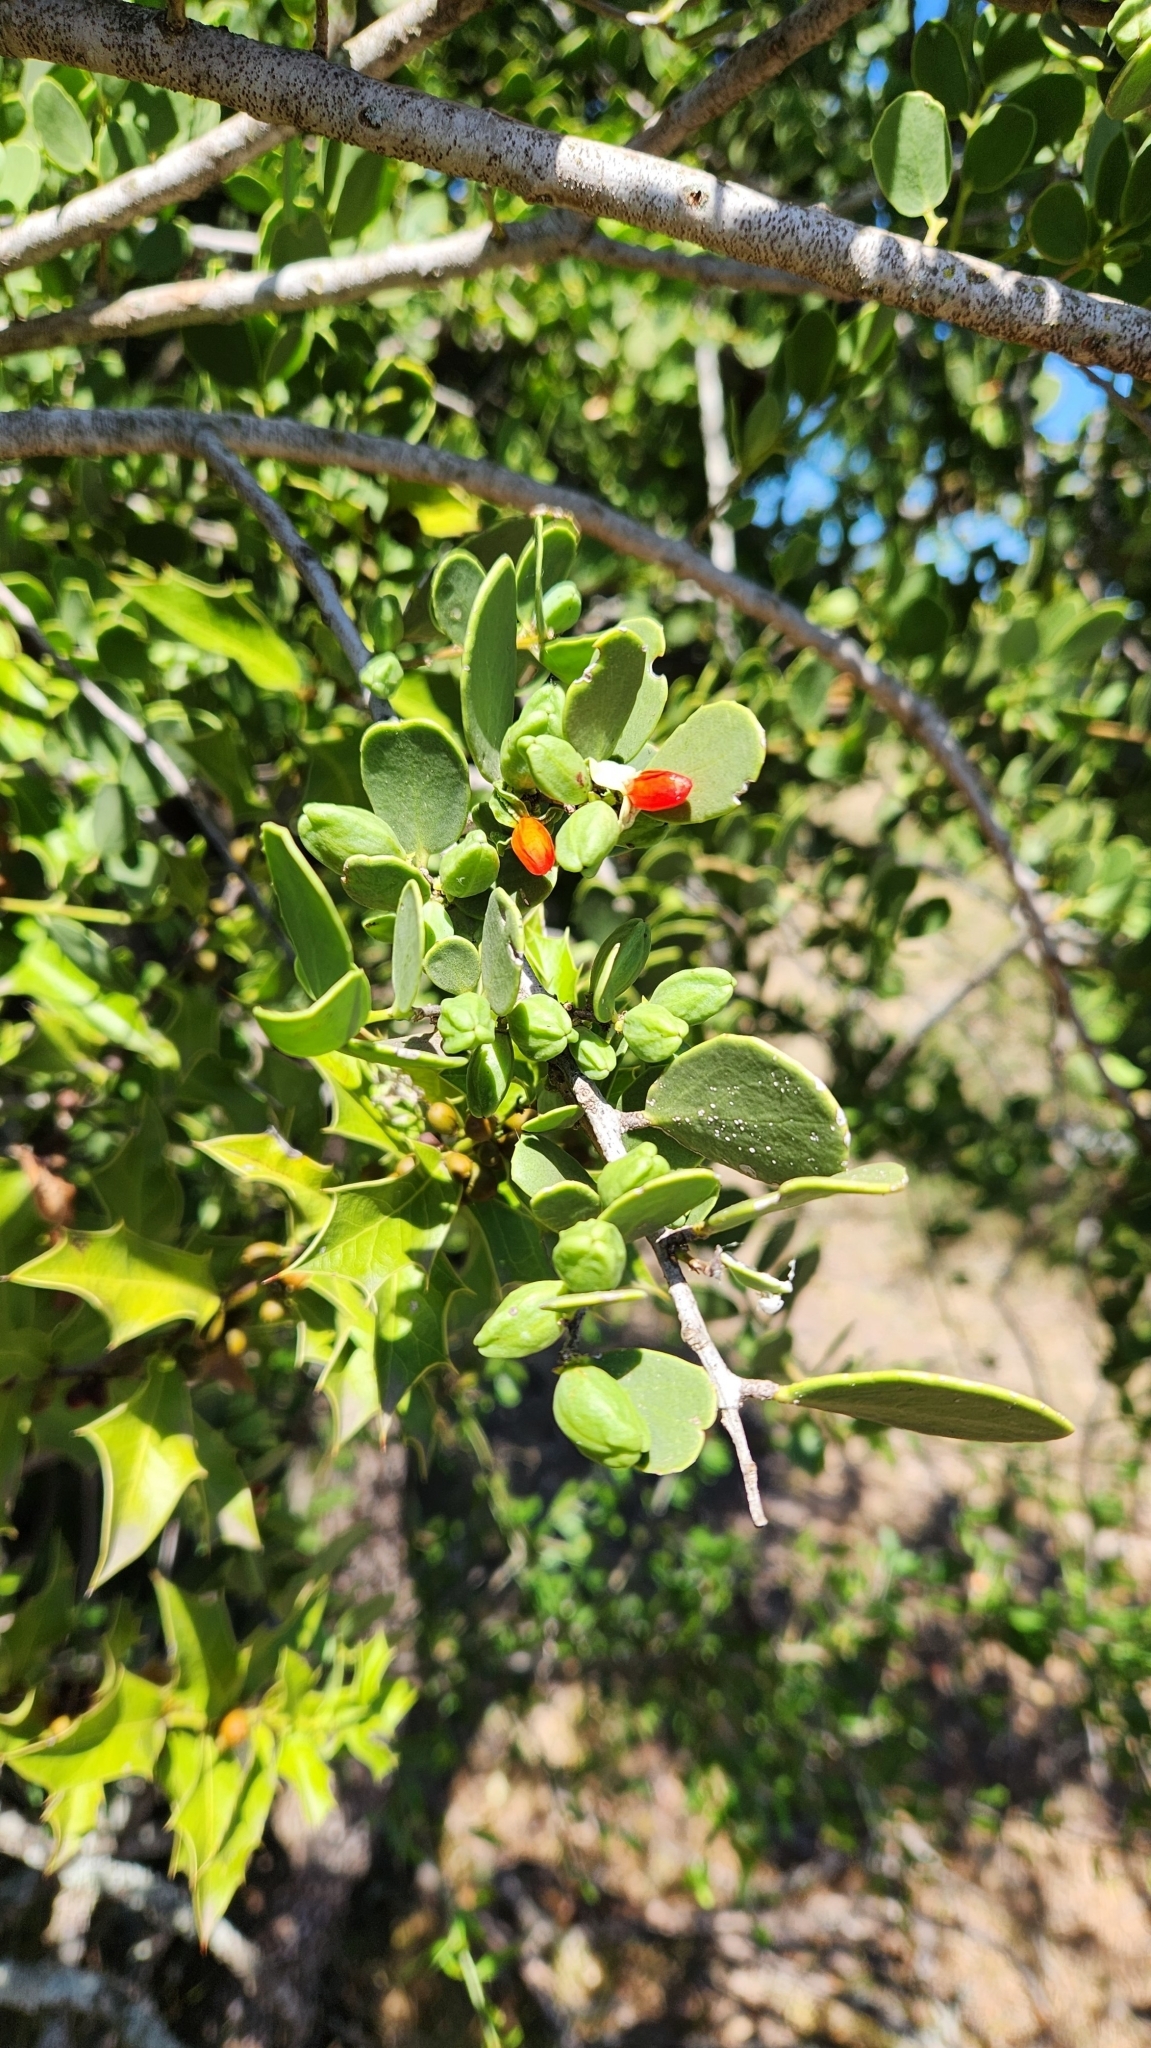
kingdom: Plantae
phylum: Tracheophyta
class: Magnoliopsida
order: Celastrales
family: Celastraceae
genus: Tricerma
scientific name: Tricerma vitis-idaeum
